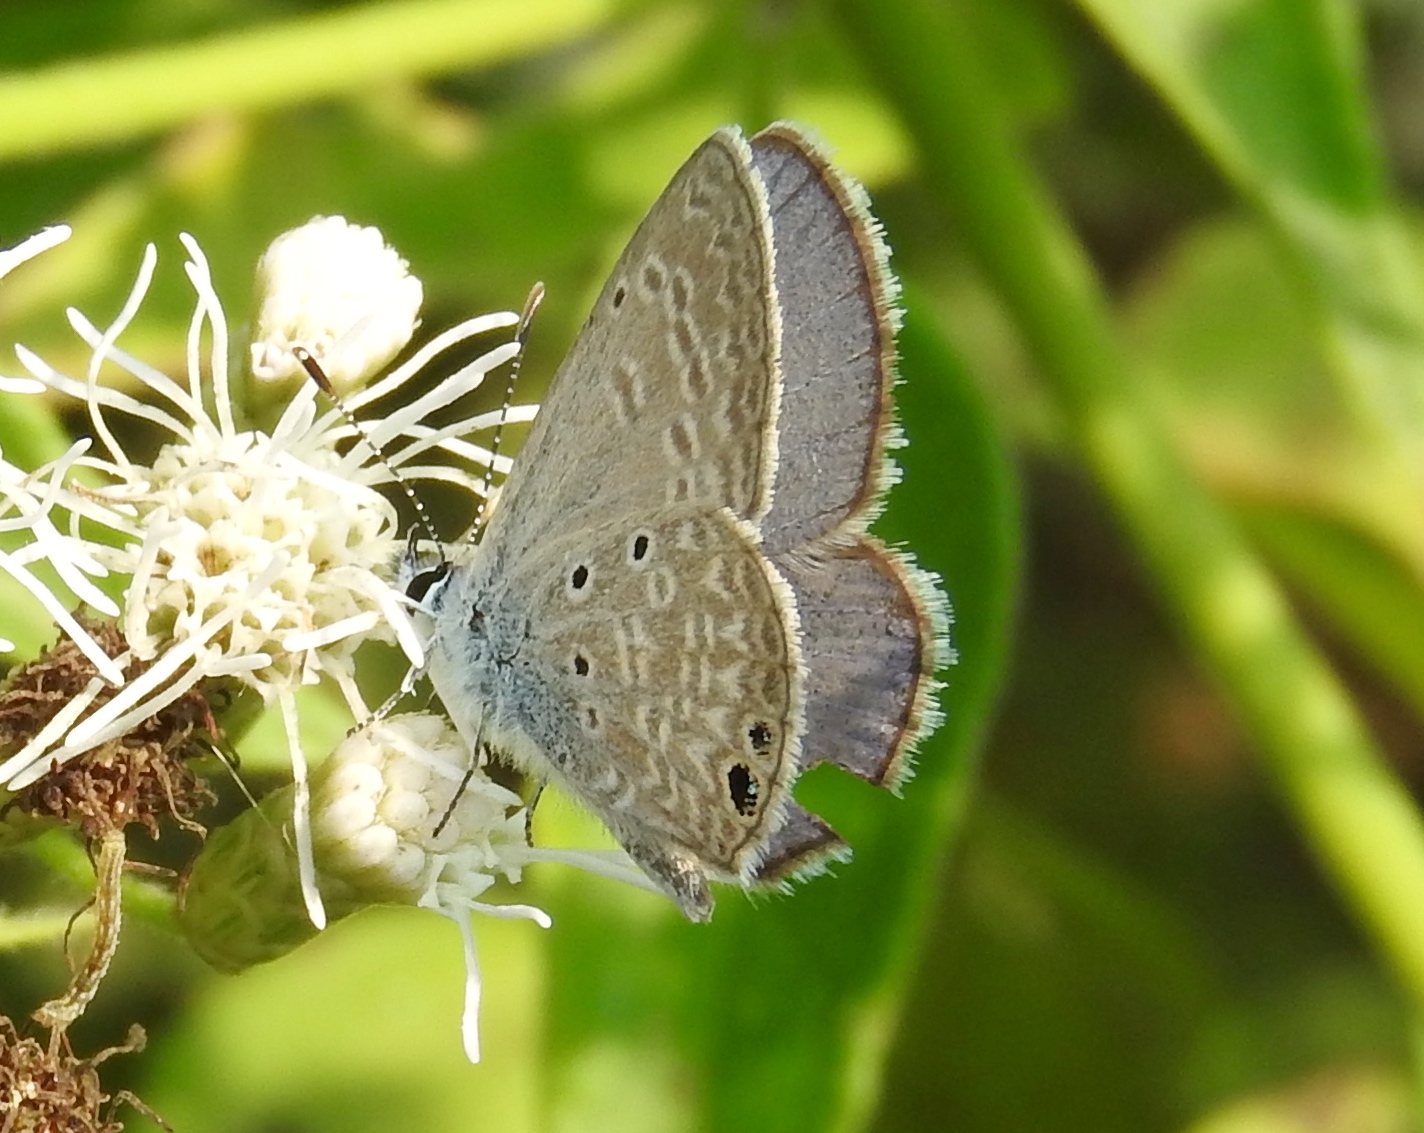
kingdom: Animalia
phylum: Arthropoda
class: Insecta
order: Lepidoptera
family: Lycaenidae
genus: Hemiargus
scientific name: Hemiargus ceraunus
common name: Ceraunus blue
